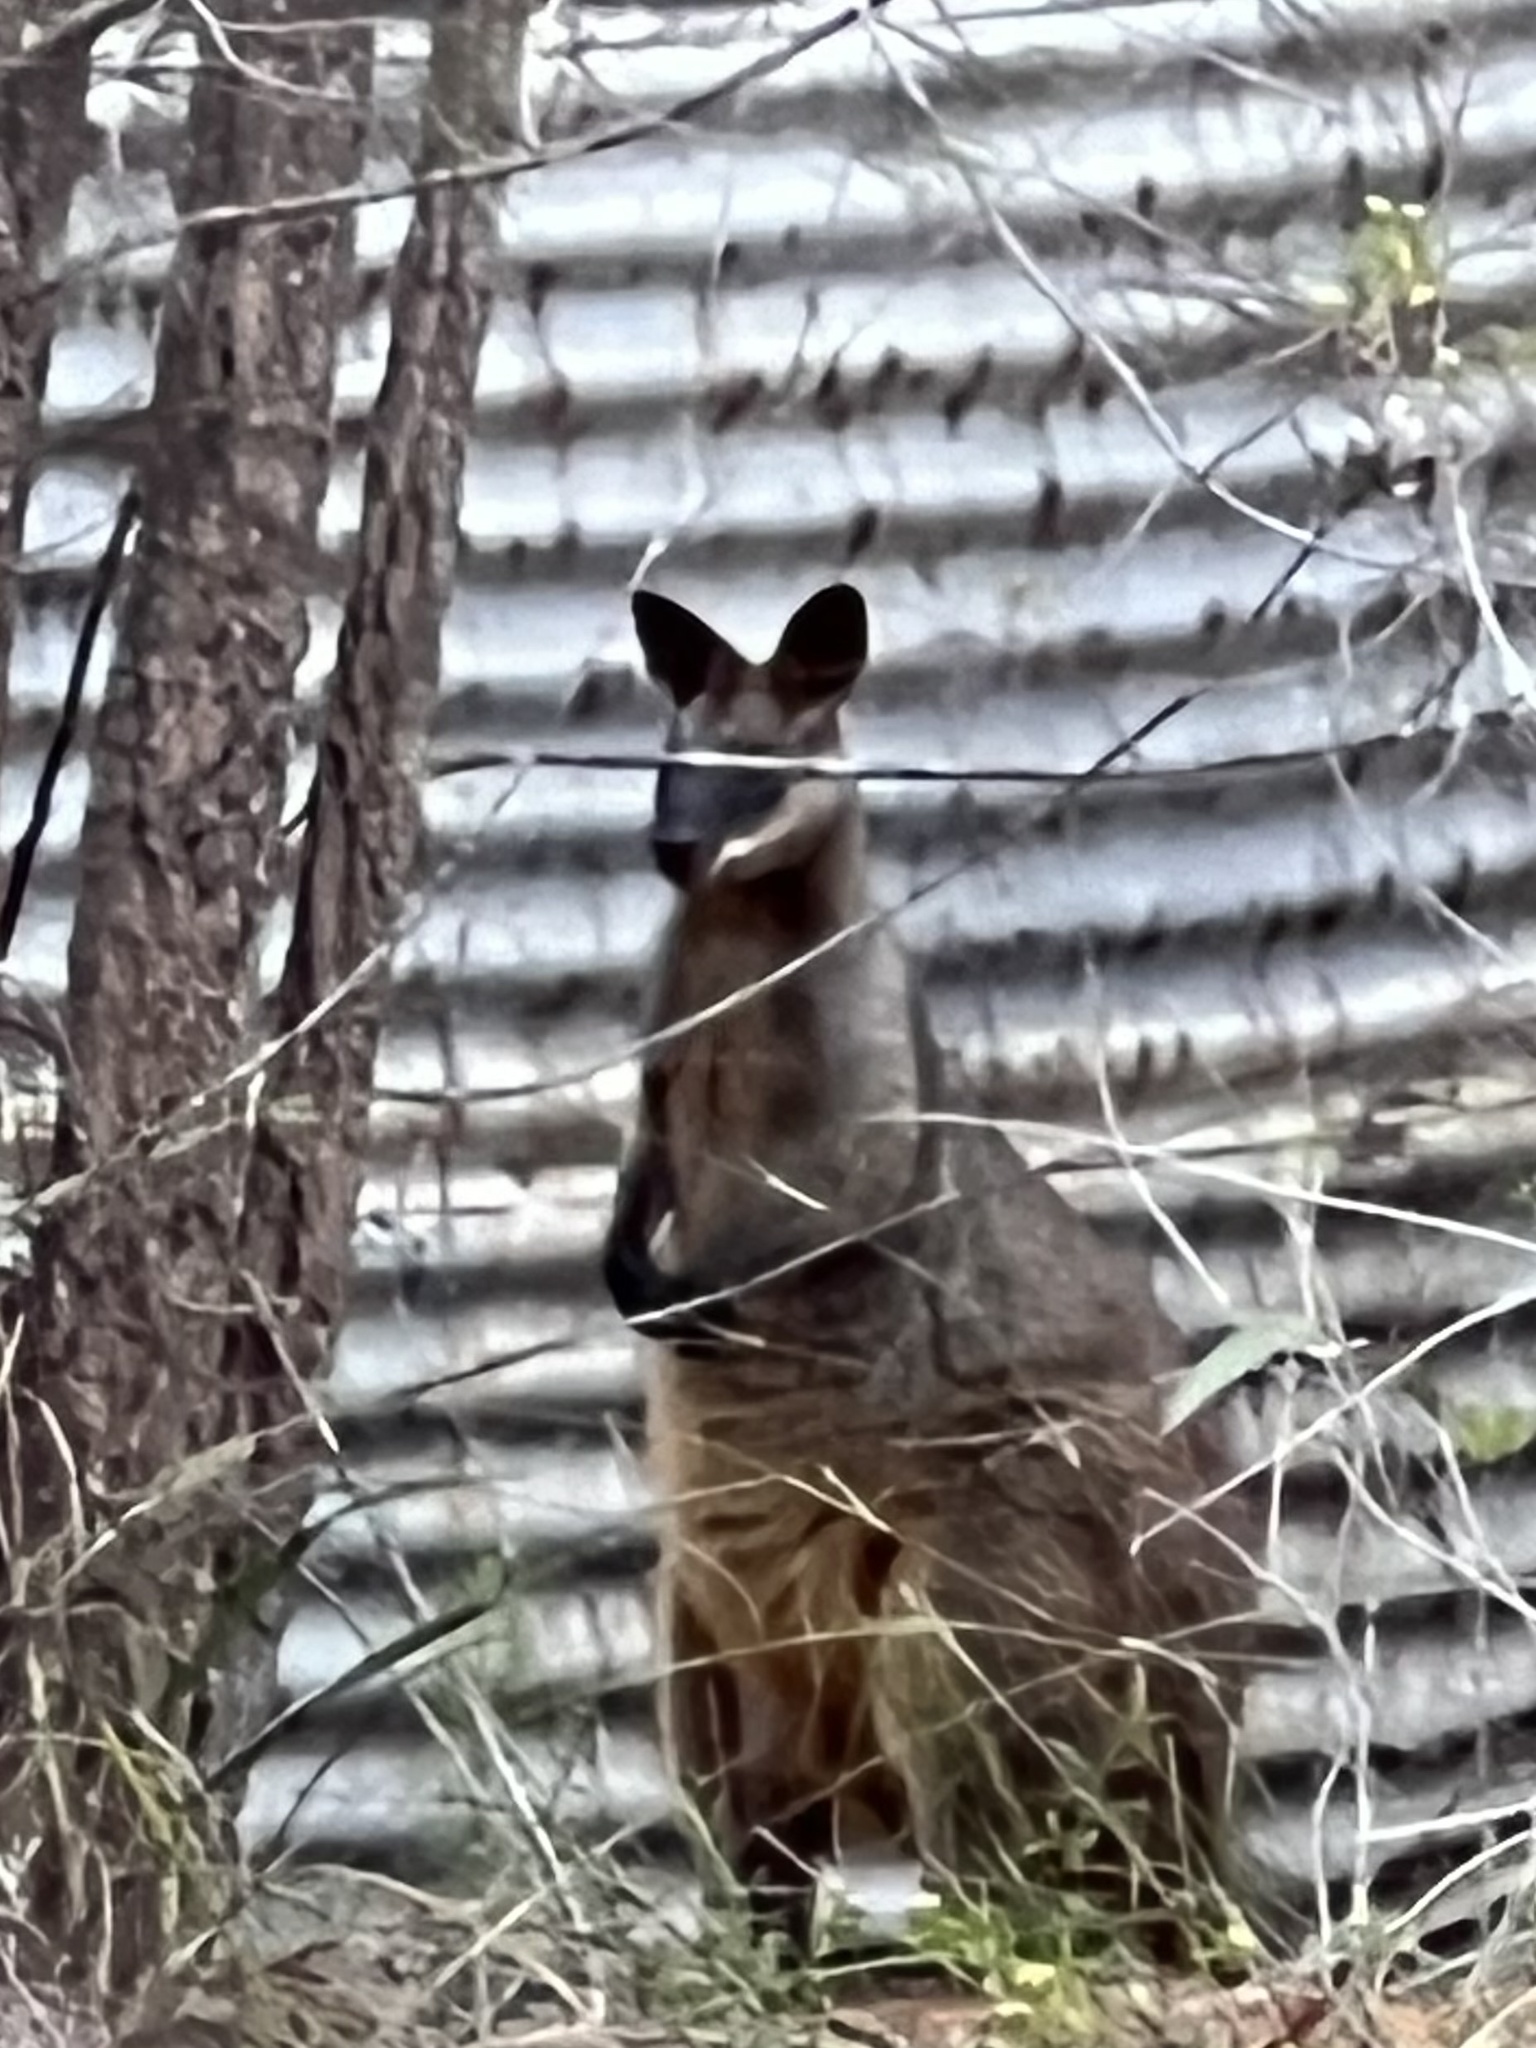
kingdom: Animalia
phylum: Chordata
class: Mammalia
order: Diprotodontia
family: Macropodidae
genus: Wallabia
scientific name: Wallabia bicolor
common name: Swamp wallaby
